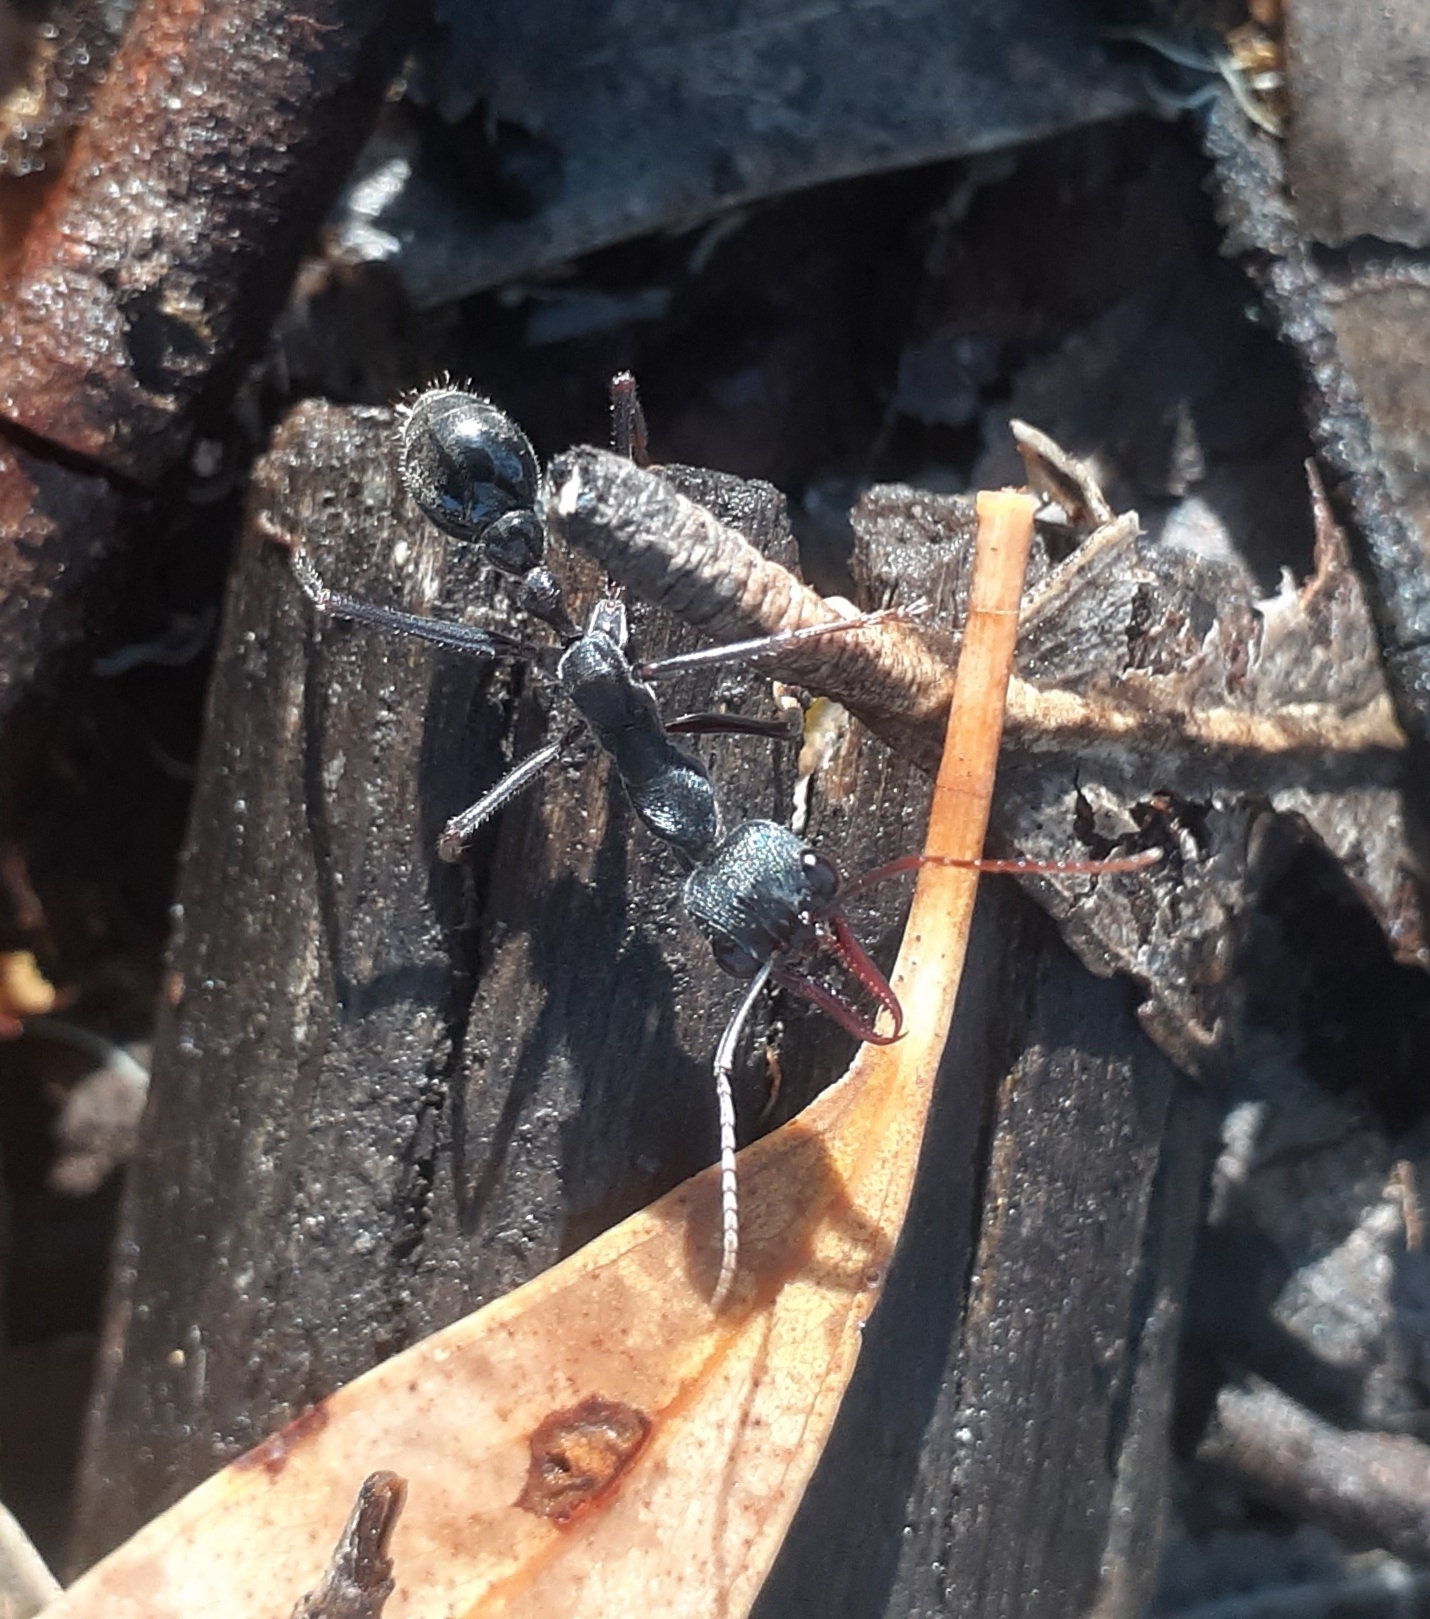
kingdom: Animalia
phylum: Arthropoda
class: Insecta
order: Hymenoptera
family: Formicidae
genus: Myrmecia
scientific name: Myrmecia pyriformis
